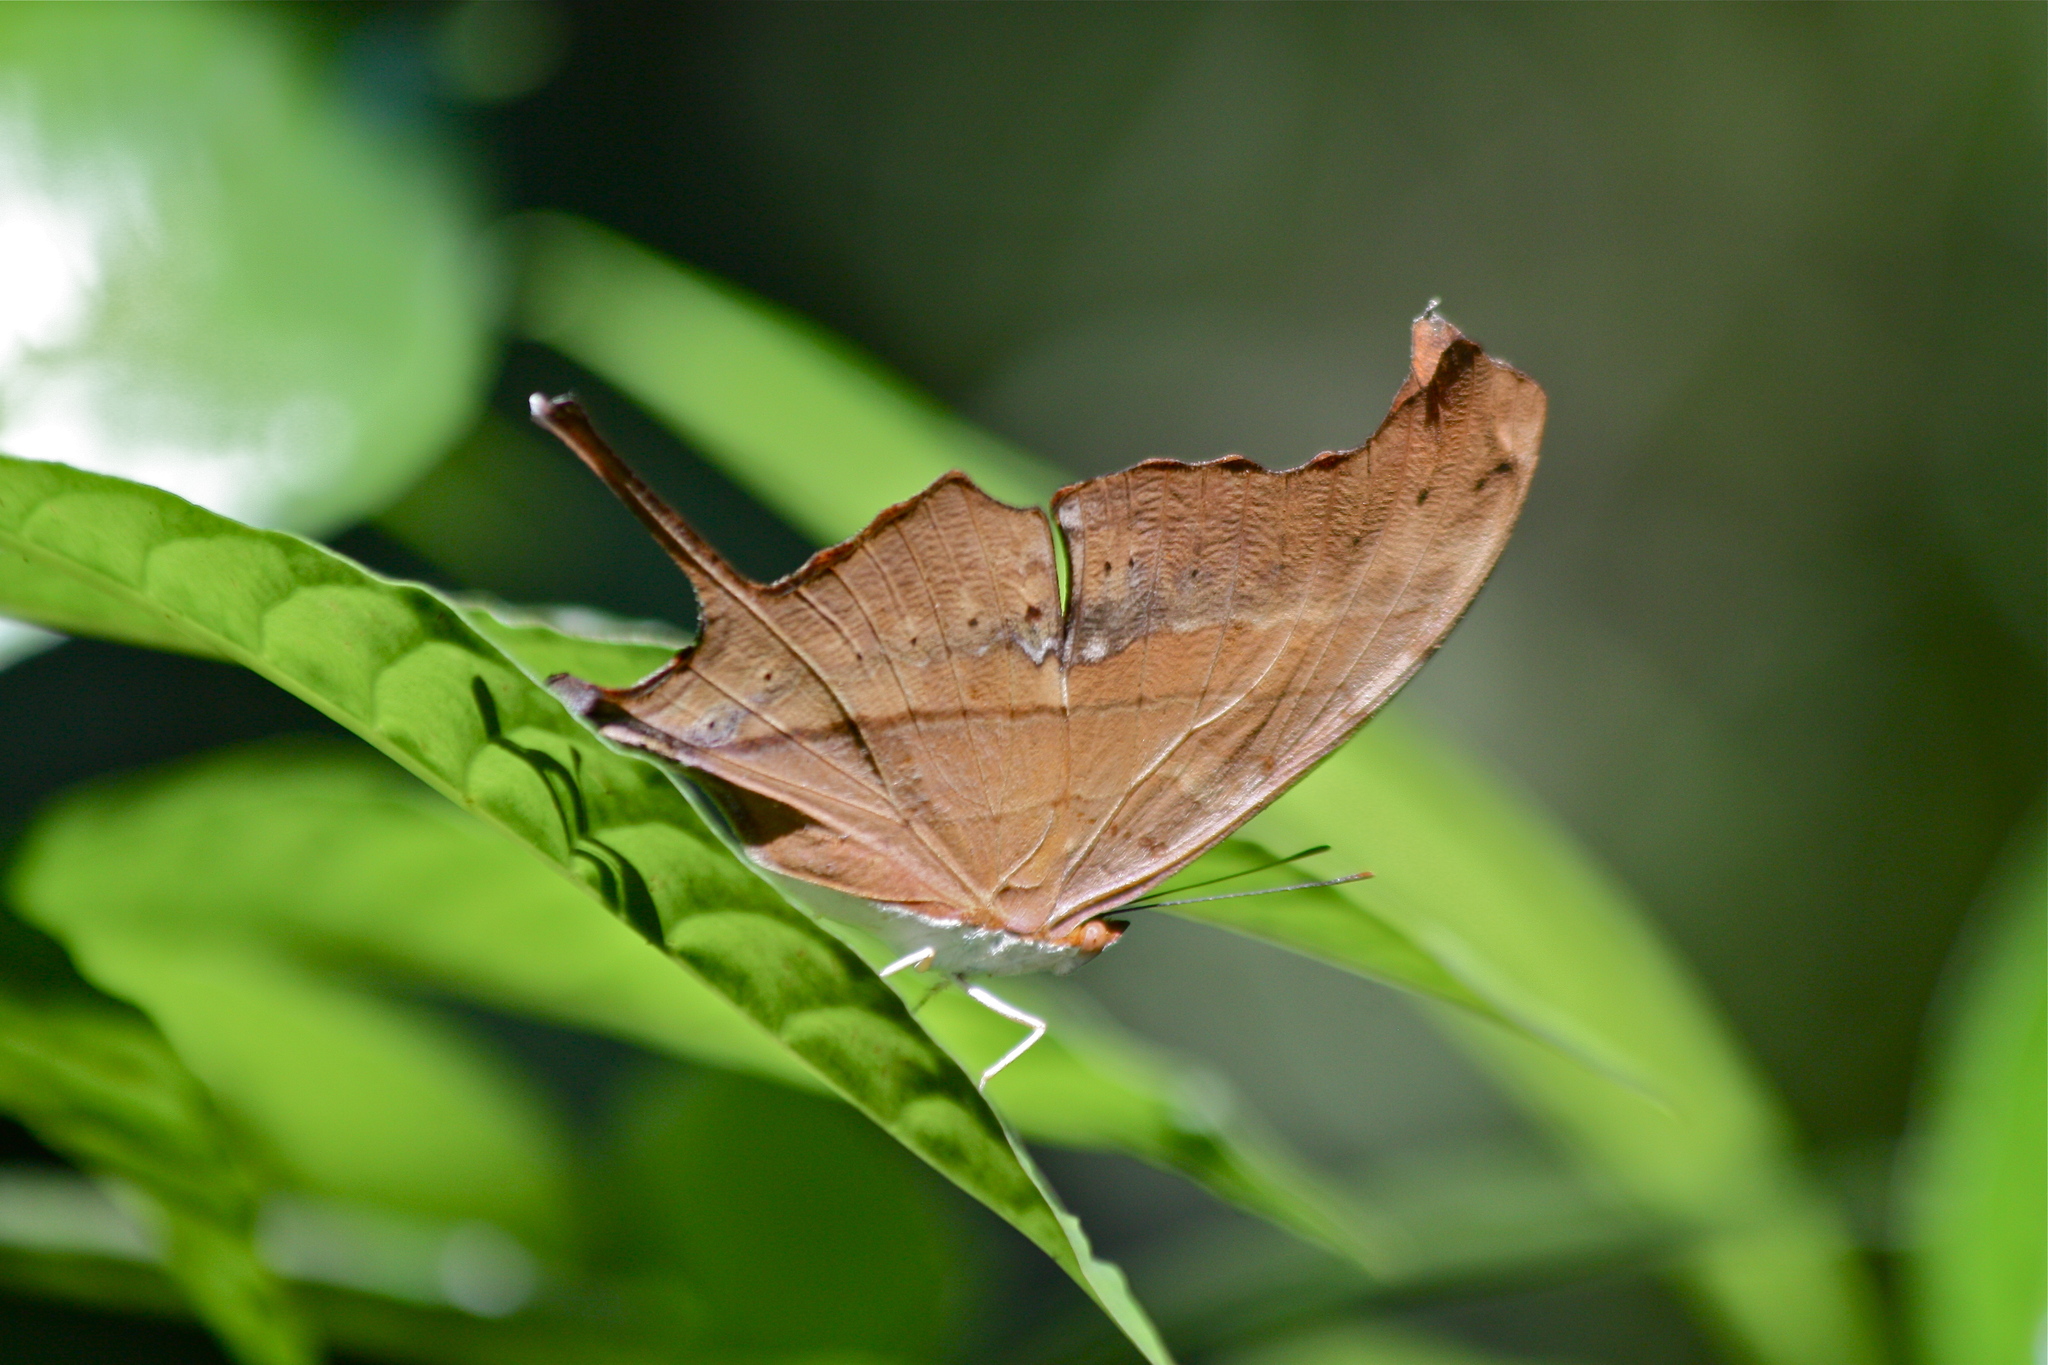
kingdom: Animalia
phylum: Arthropoda
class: Insecta
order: Lepidoptera
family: Nymphalidae
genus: Marpesia
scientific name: Marpesia petreus
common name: Red dagger wing
